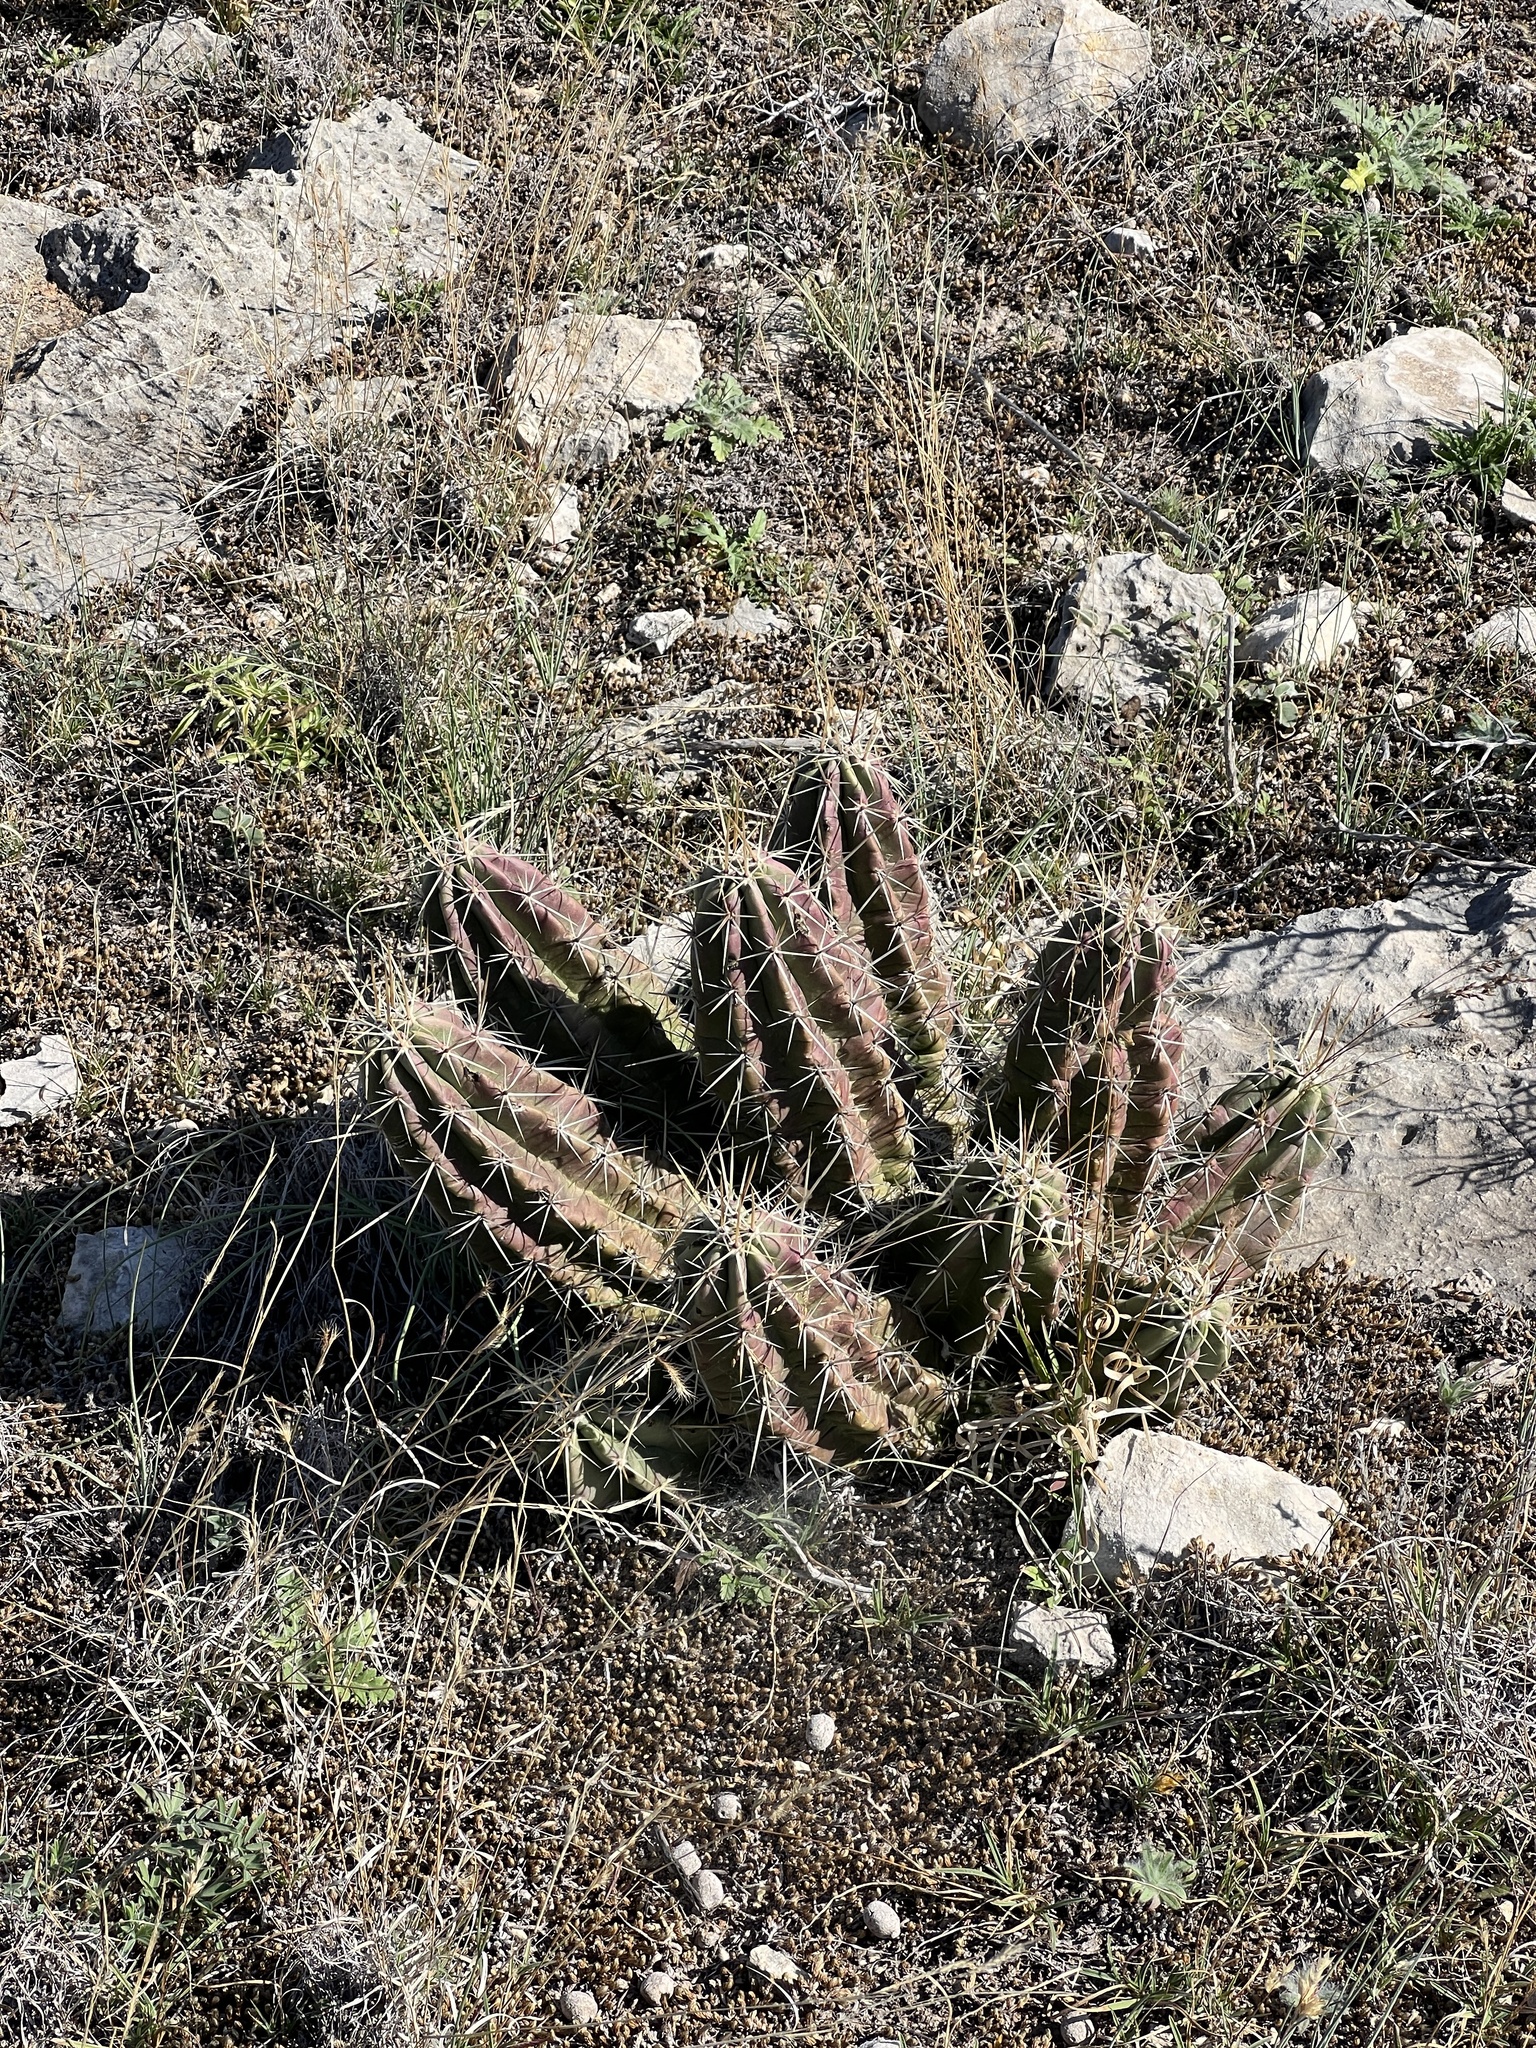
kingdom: Plantae
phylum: Tracheophyta
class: Magnoliopsida
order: Caryophyllales
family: Cactaceae
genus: Echinocereus
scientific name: Echinocereus enneacanthus
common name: Pitaya
